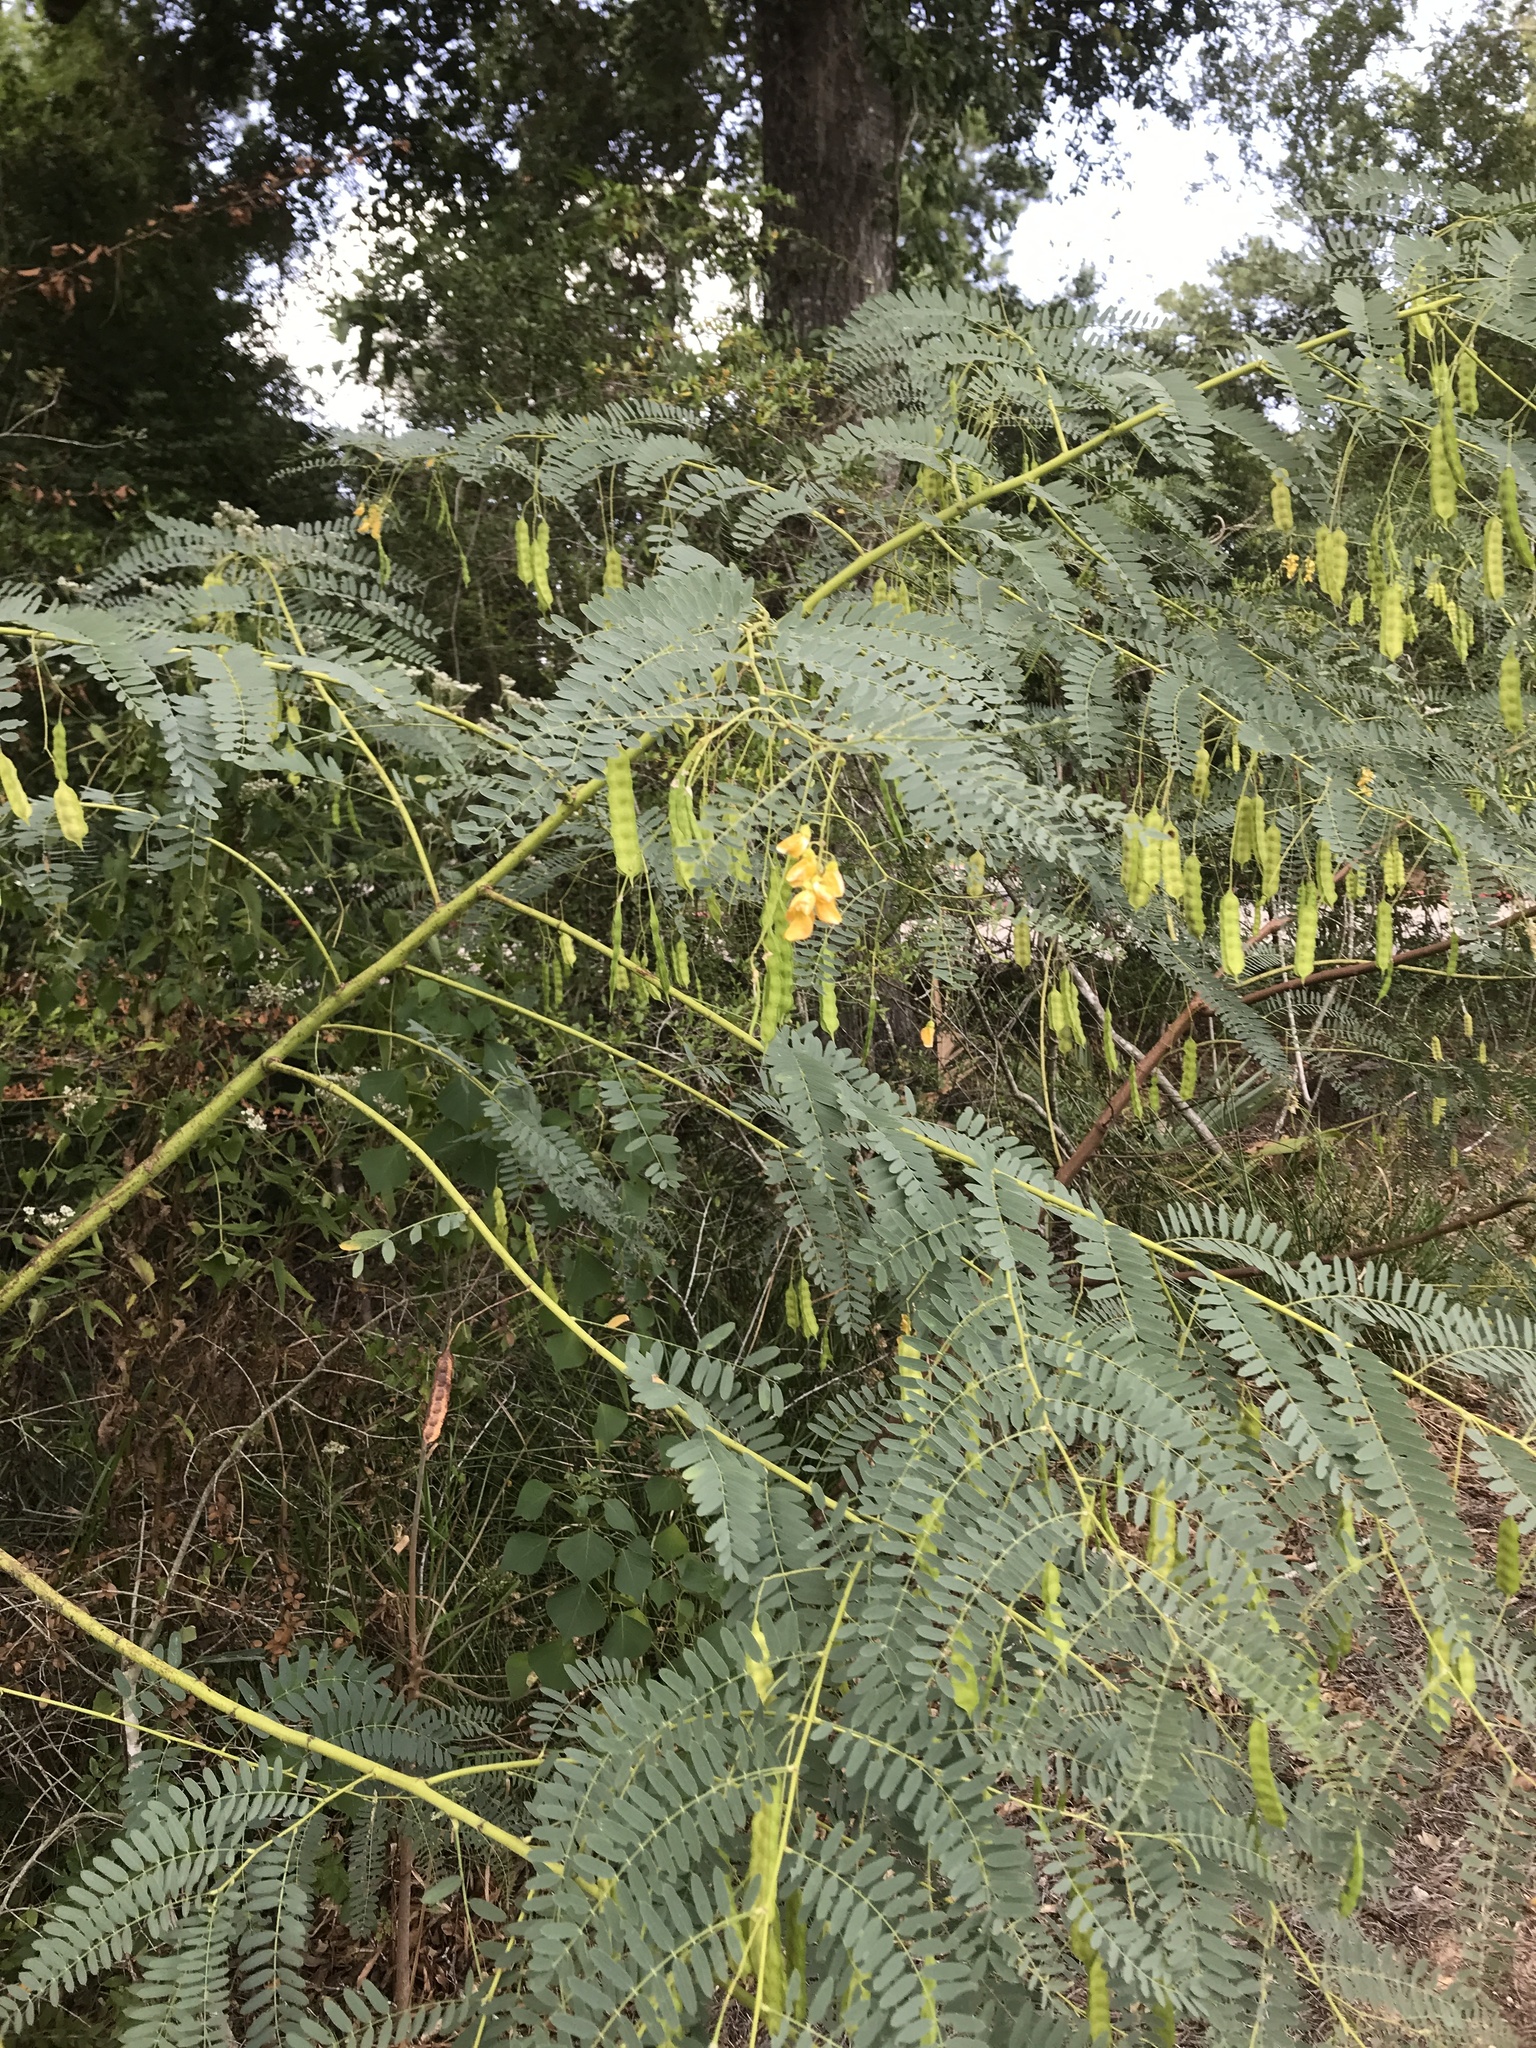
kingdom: Plantae
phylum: Tracheophyta
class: Magnoliopsida
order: Fabales
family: Fabaceae
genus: Sesbania
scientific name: Sesbania drummondii
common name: Poison-bean
